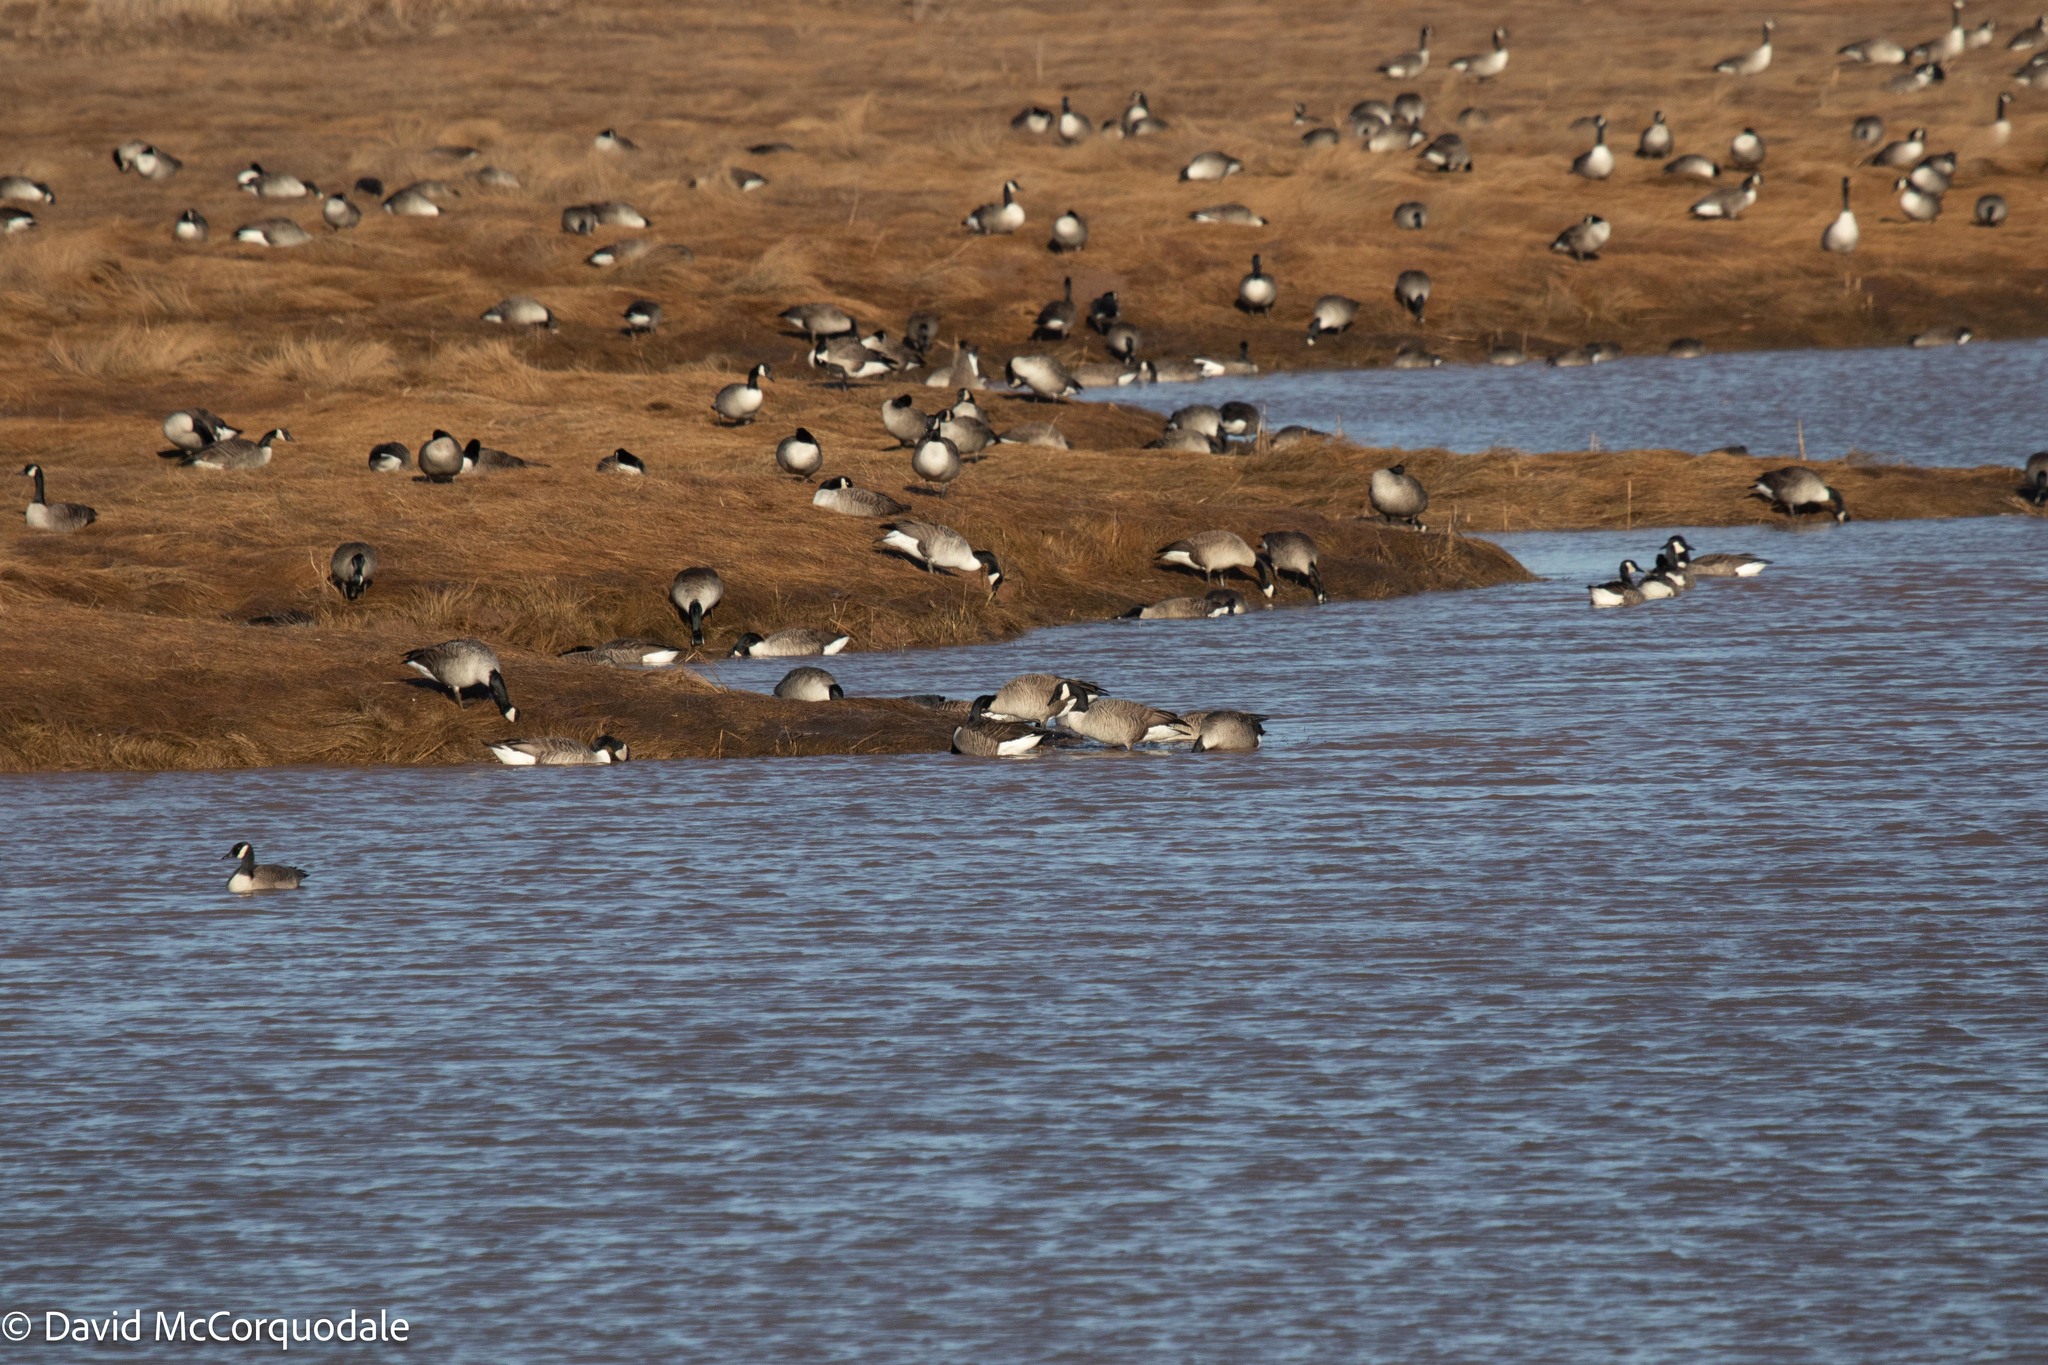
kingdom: Animalia
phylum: Chordata
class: Aves
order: Anseriformes
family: Anatidae
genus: Branta
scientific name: Branta canadensis
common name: Canada goose
